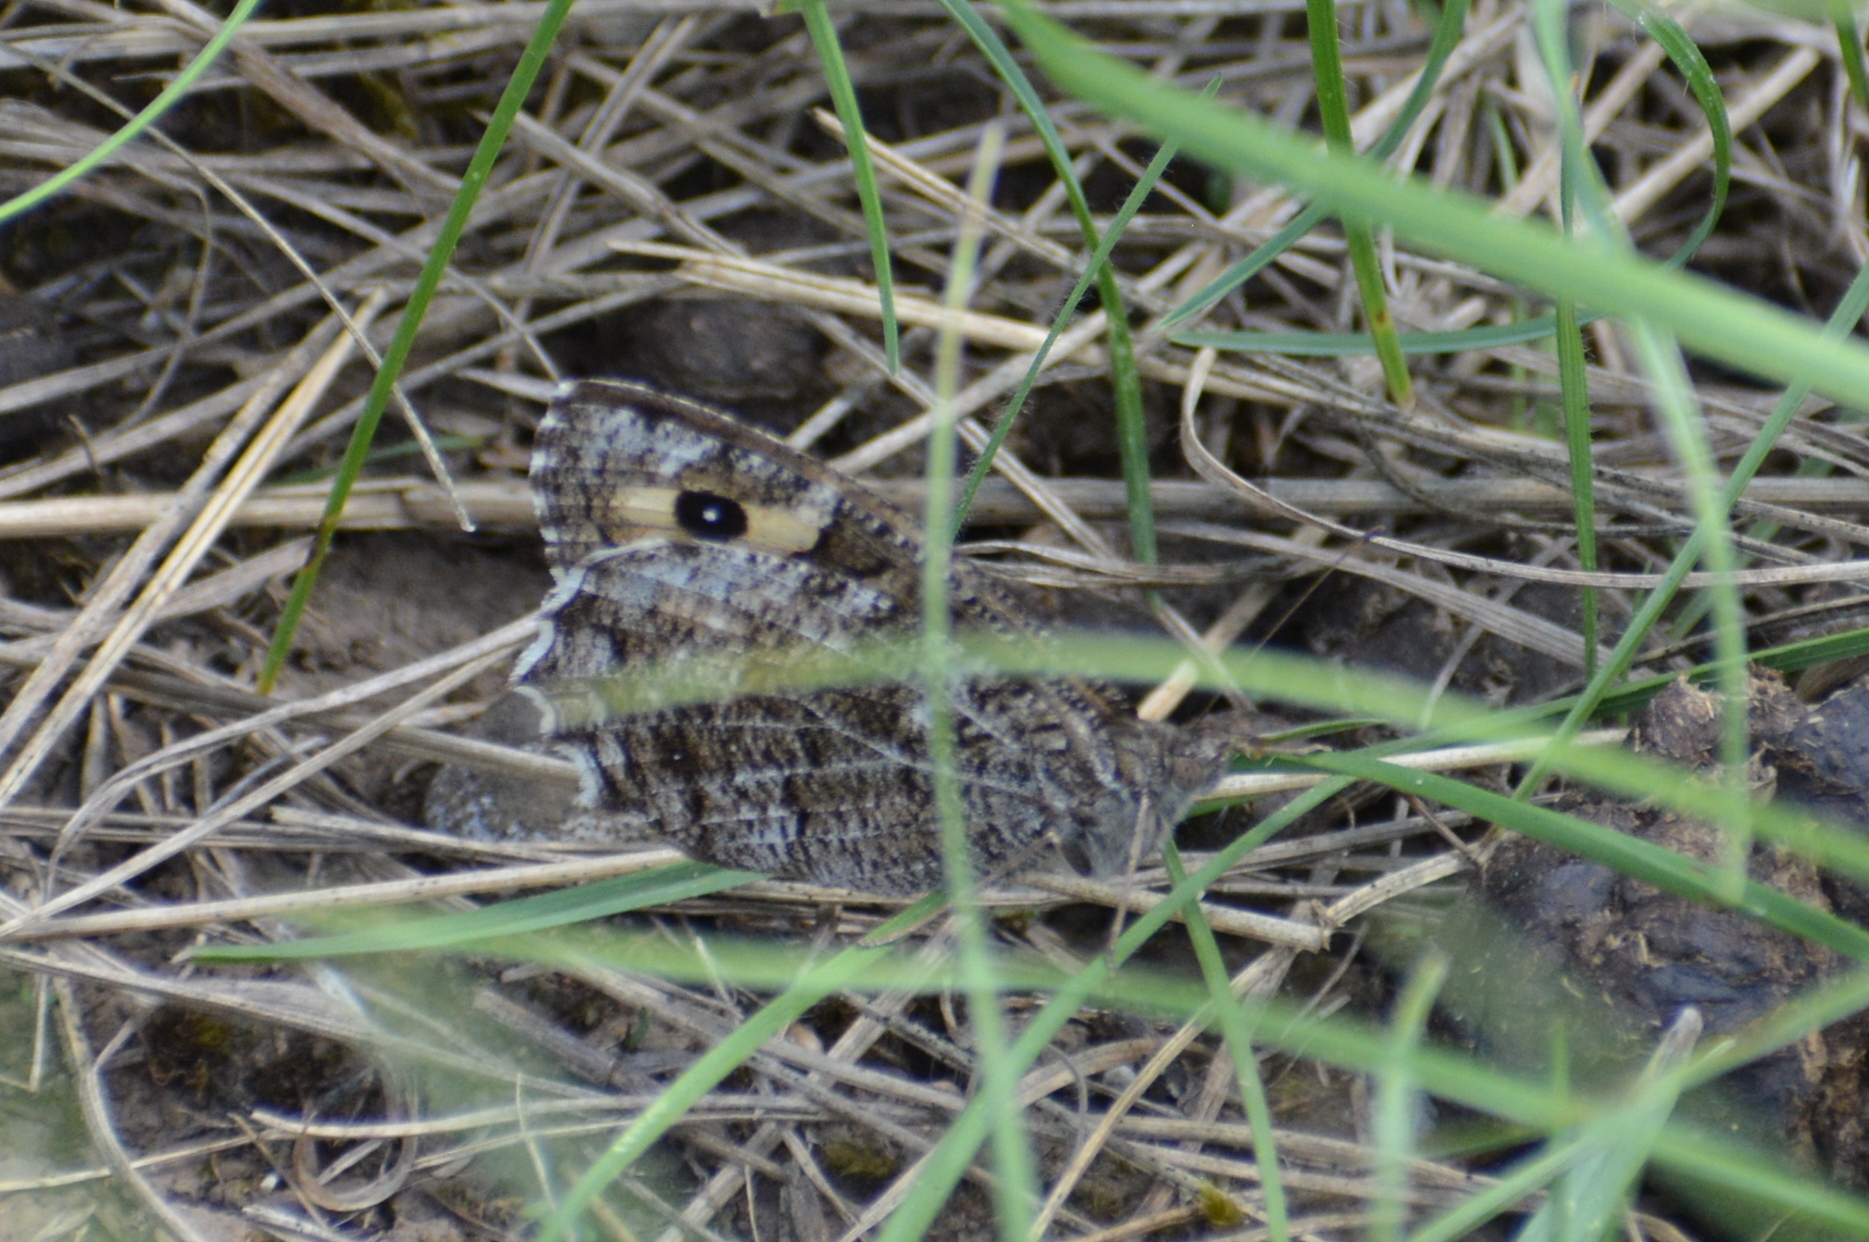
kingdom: Animalia
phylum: Arthropoda
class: Insecta
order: Lepidoptera
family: Nymphalidae
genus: Hipparchia
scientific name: Hipparchia semele
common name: Grayling
